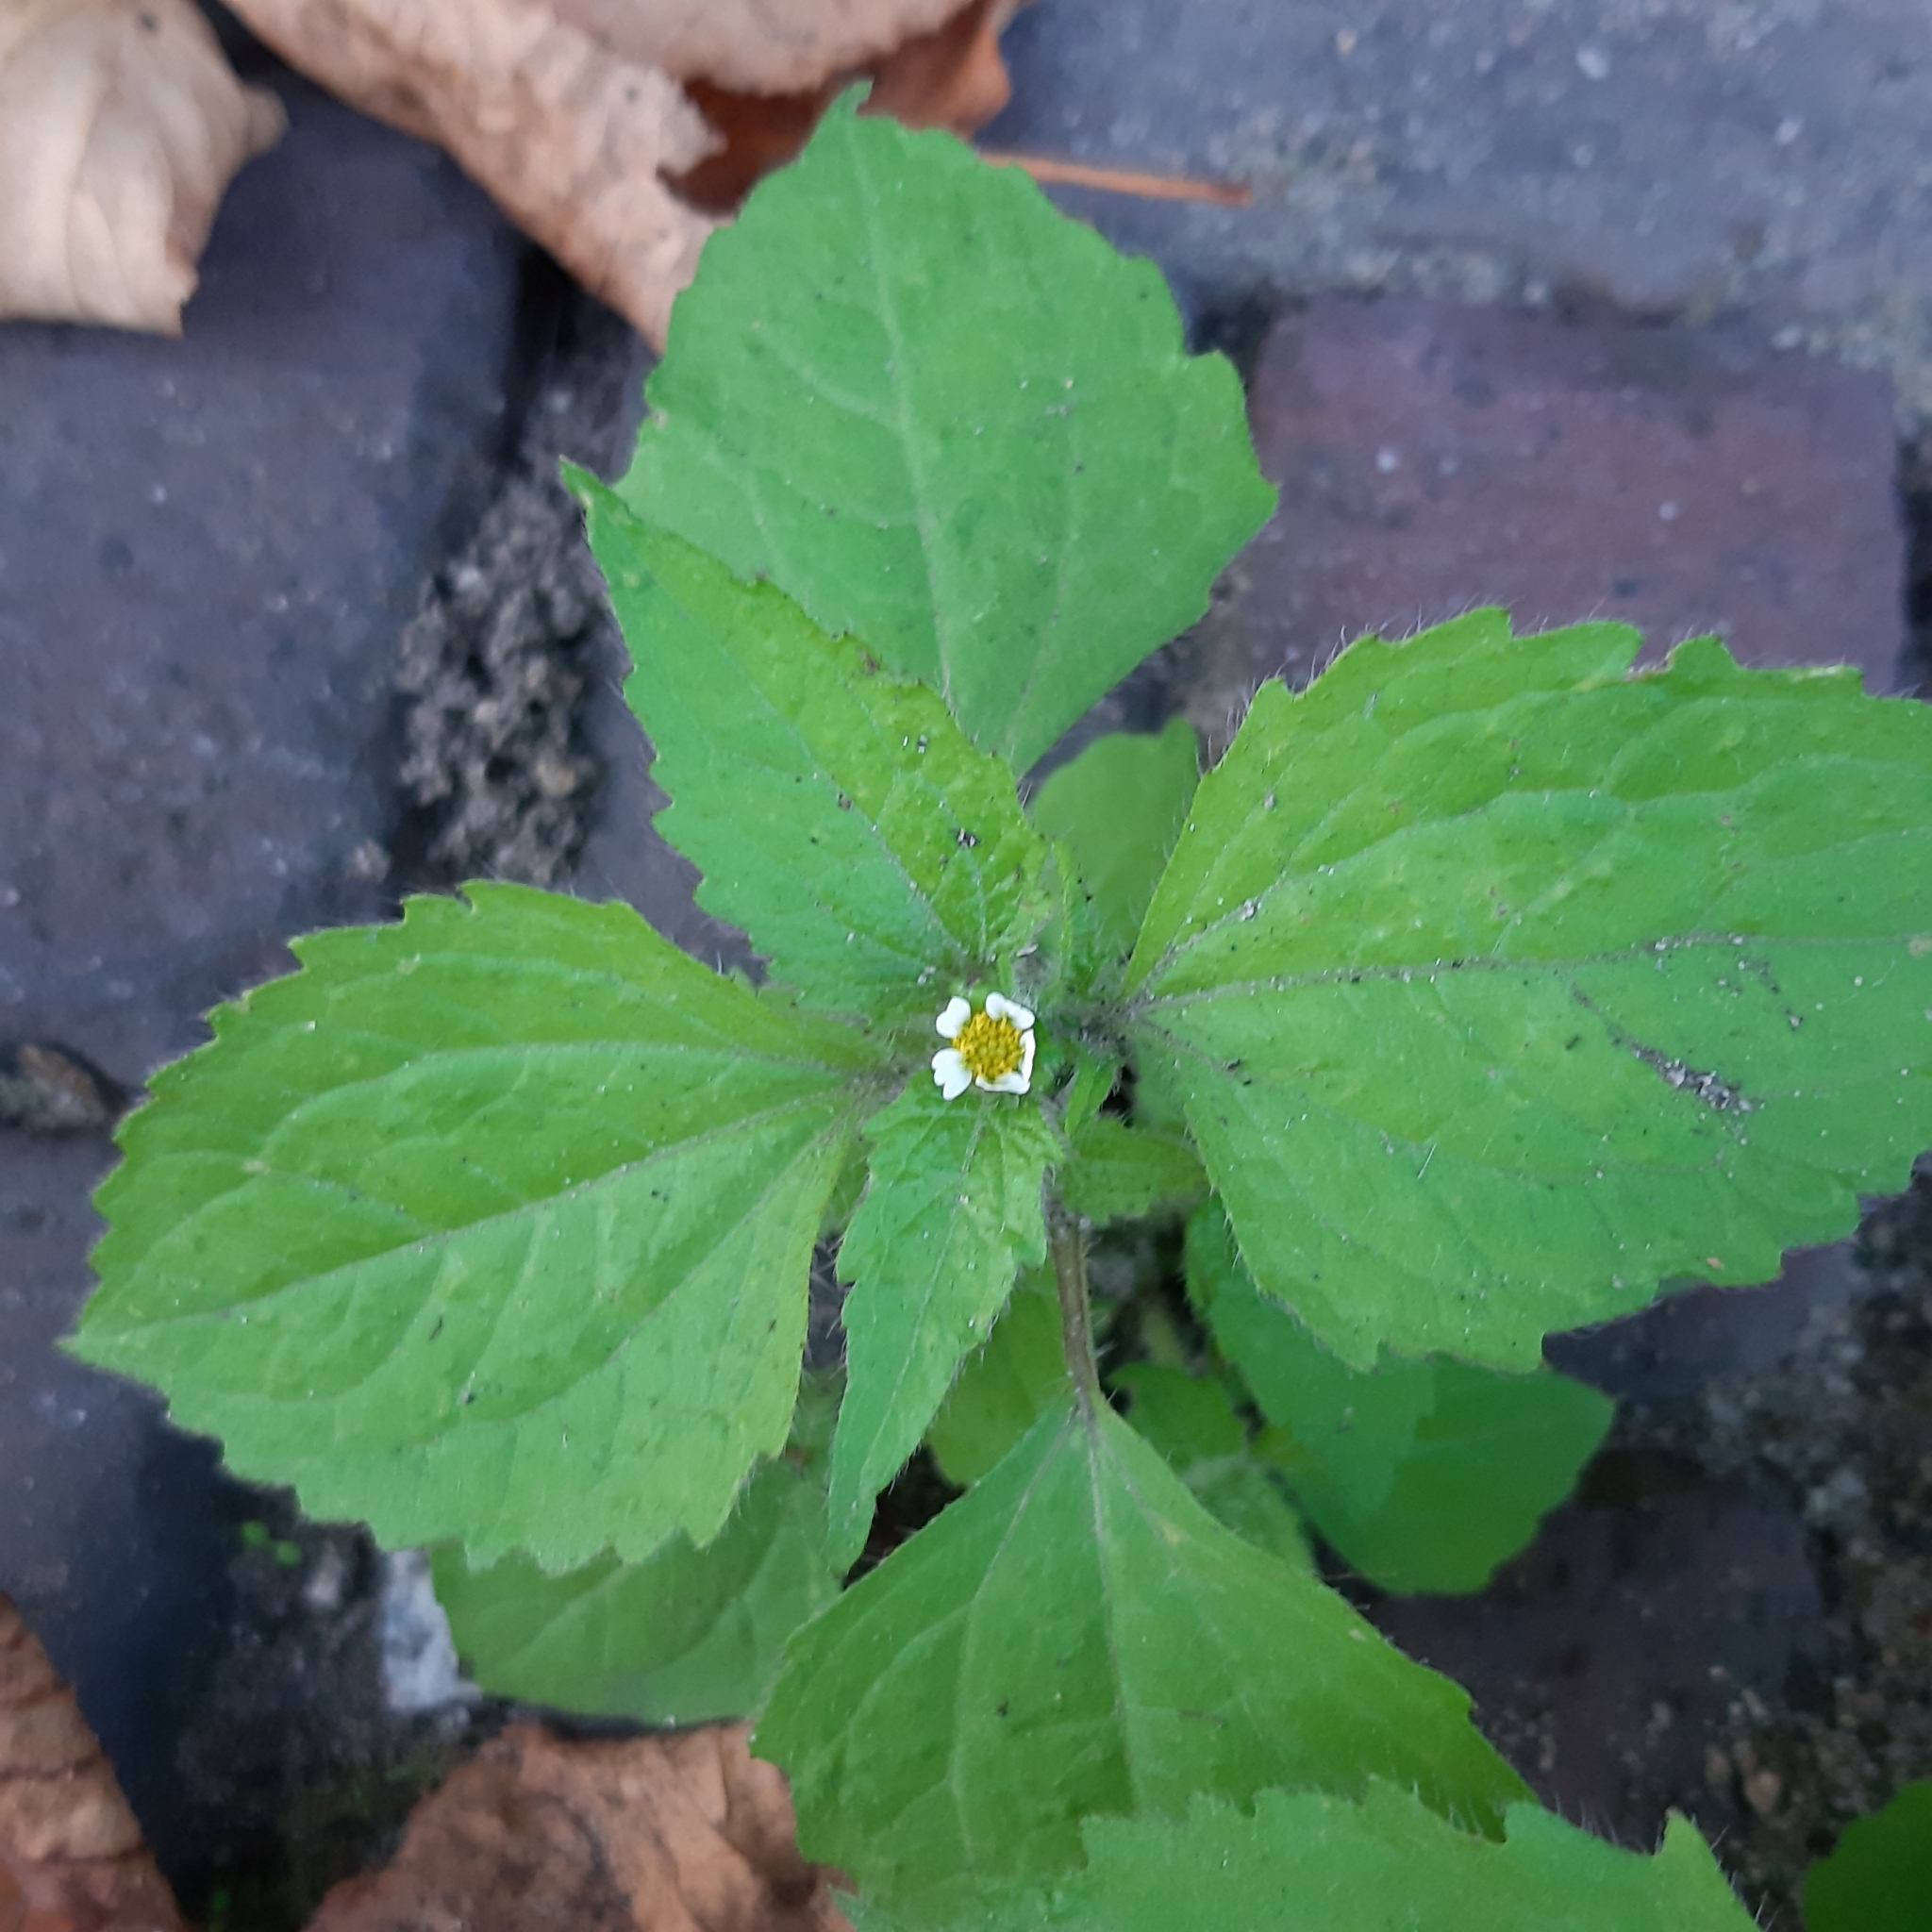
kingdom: Plantae
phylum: Tracheophyta
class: Magnoliopsida
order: Asterales
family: Asteraceae
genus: Galinsoga
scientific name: Galinsoga quadriradiata
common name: Shaggy soldier
